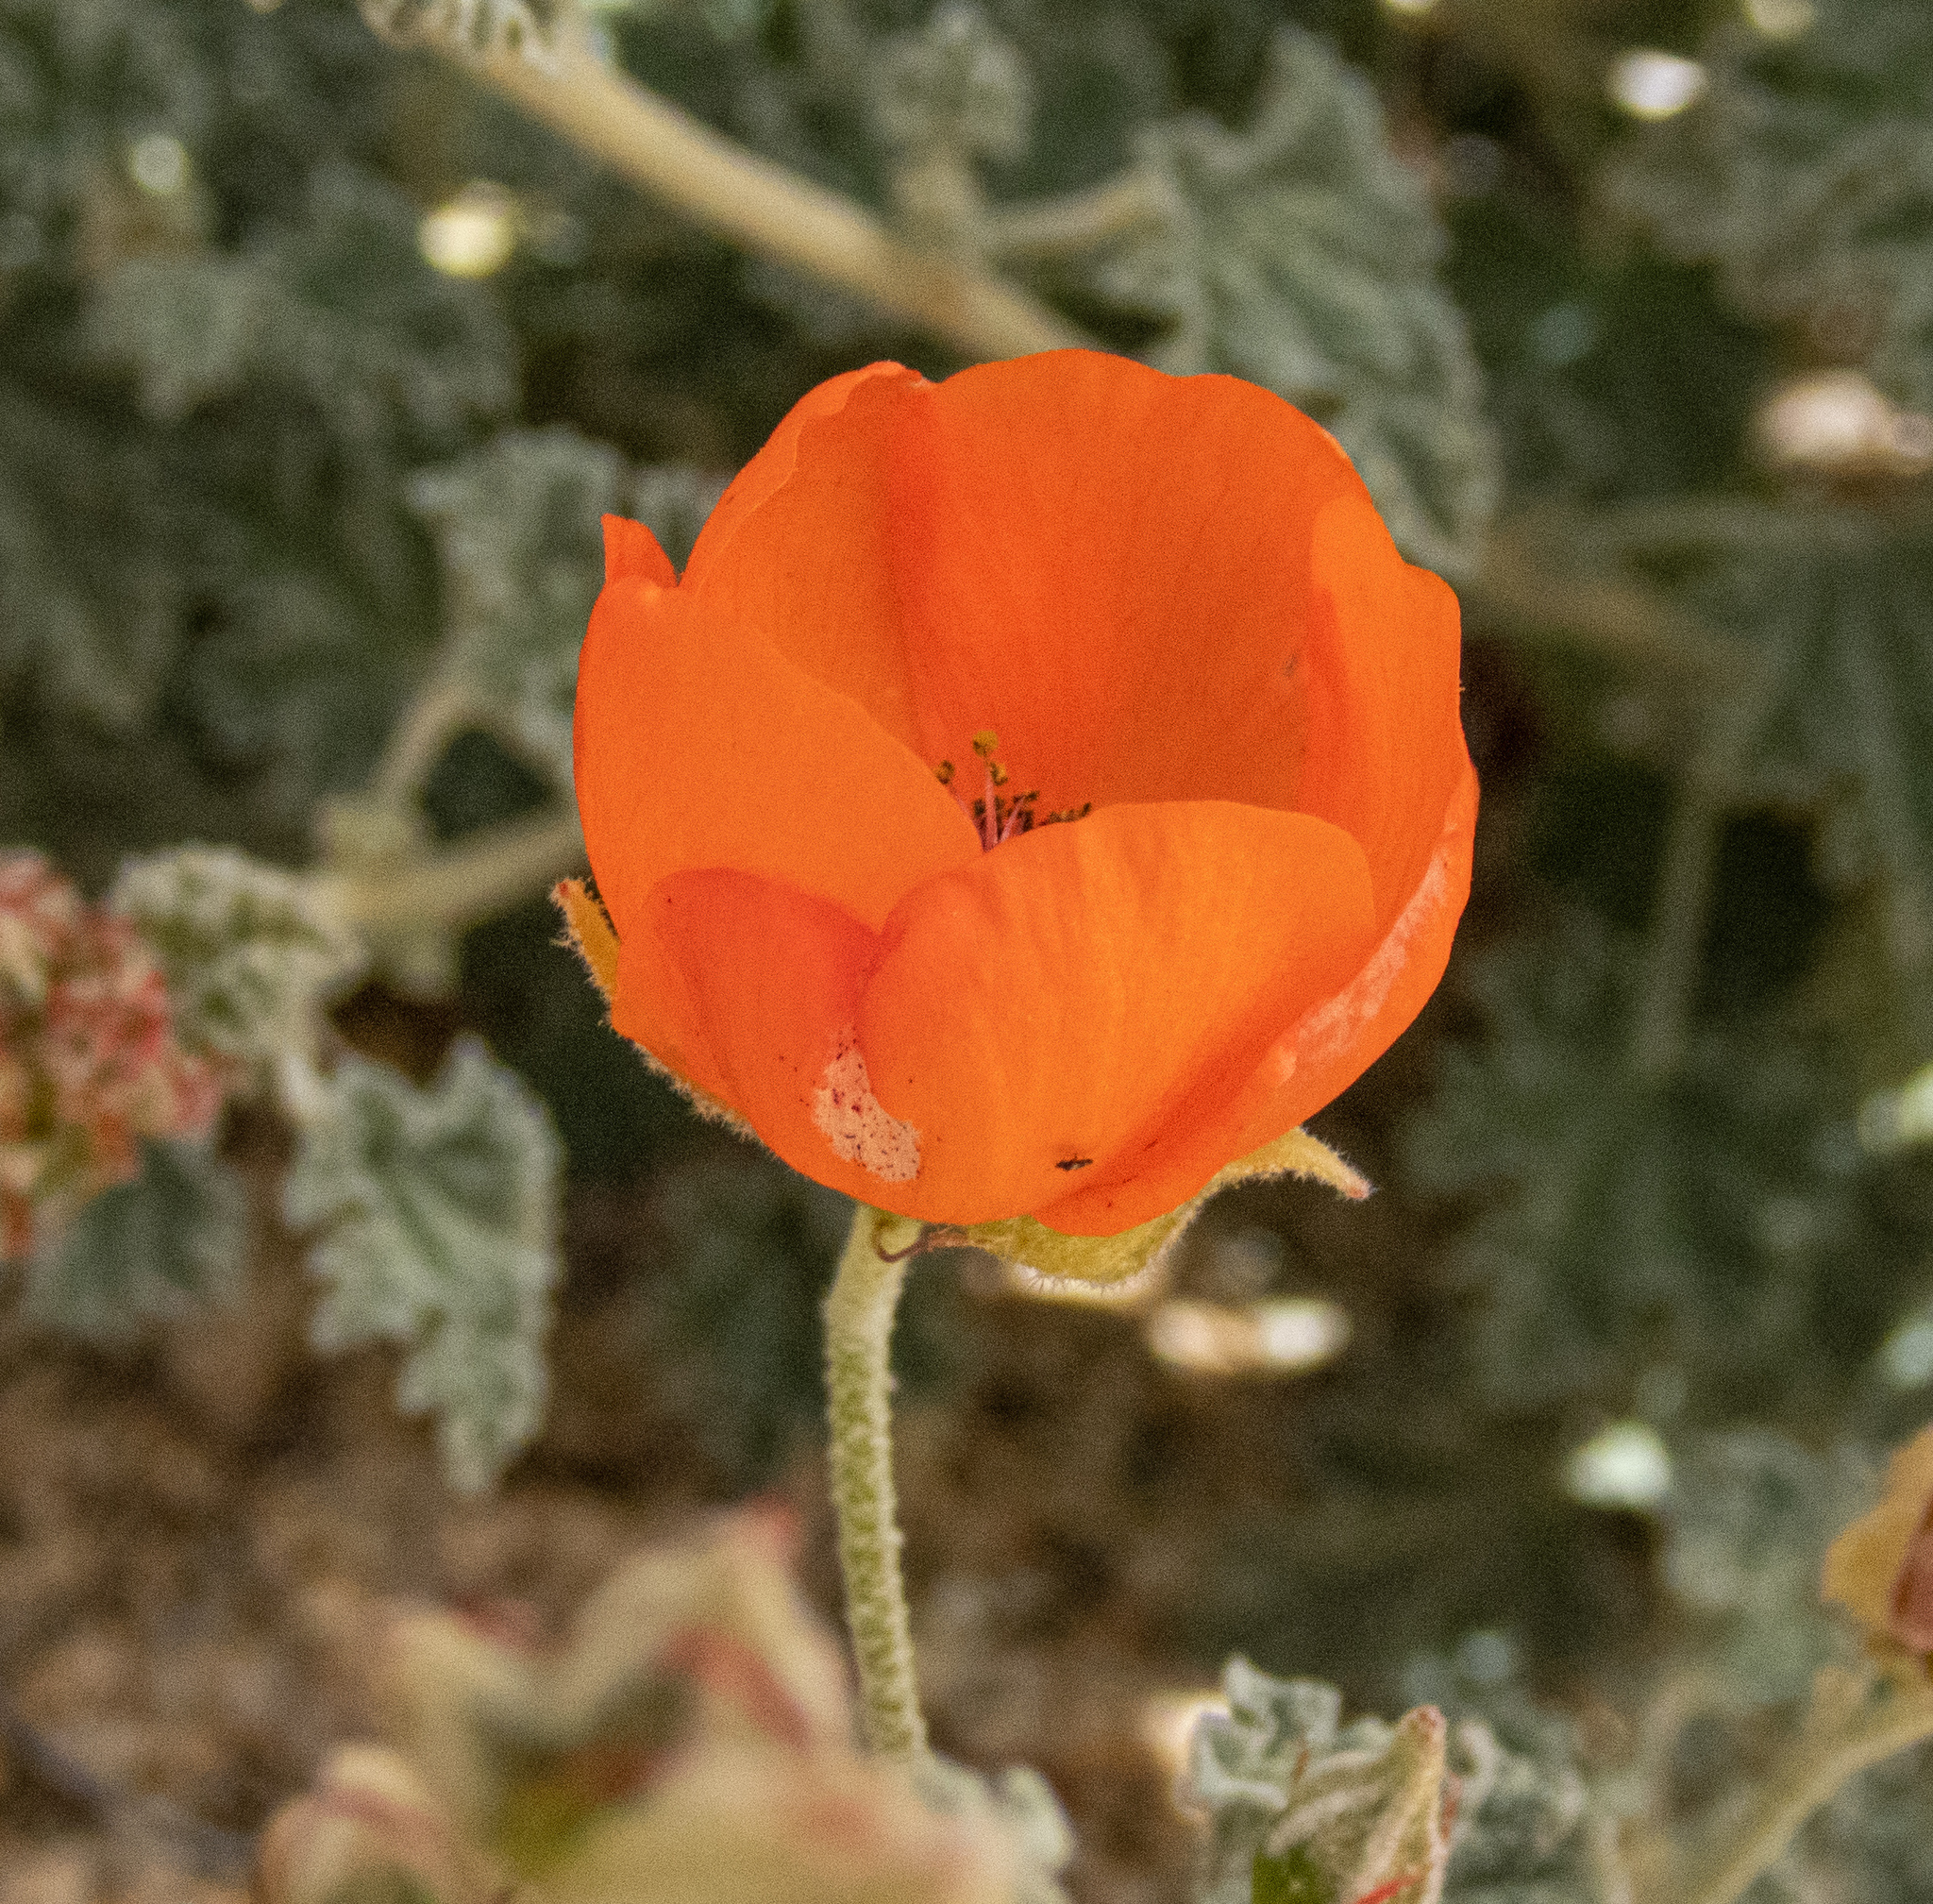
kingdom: Plantae
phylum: Tracheophyta
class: Magnoliopsida
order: Malvales
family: Malvaceae
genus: Sphaeralcea
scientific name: Sphaeralcea ambigua
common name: Apricot globe-mallow
